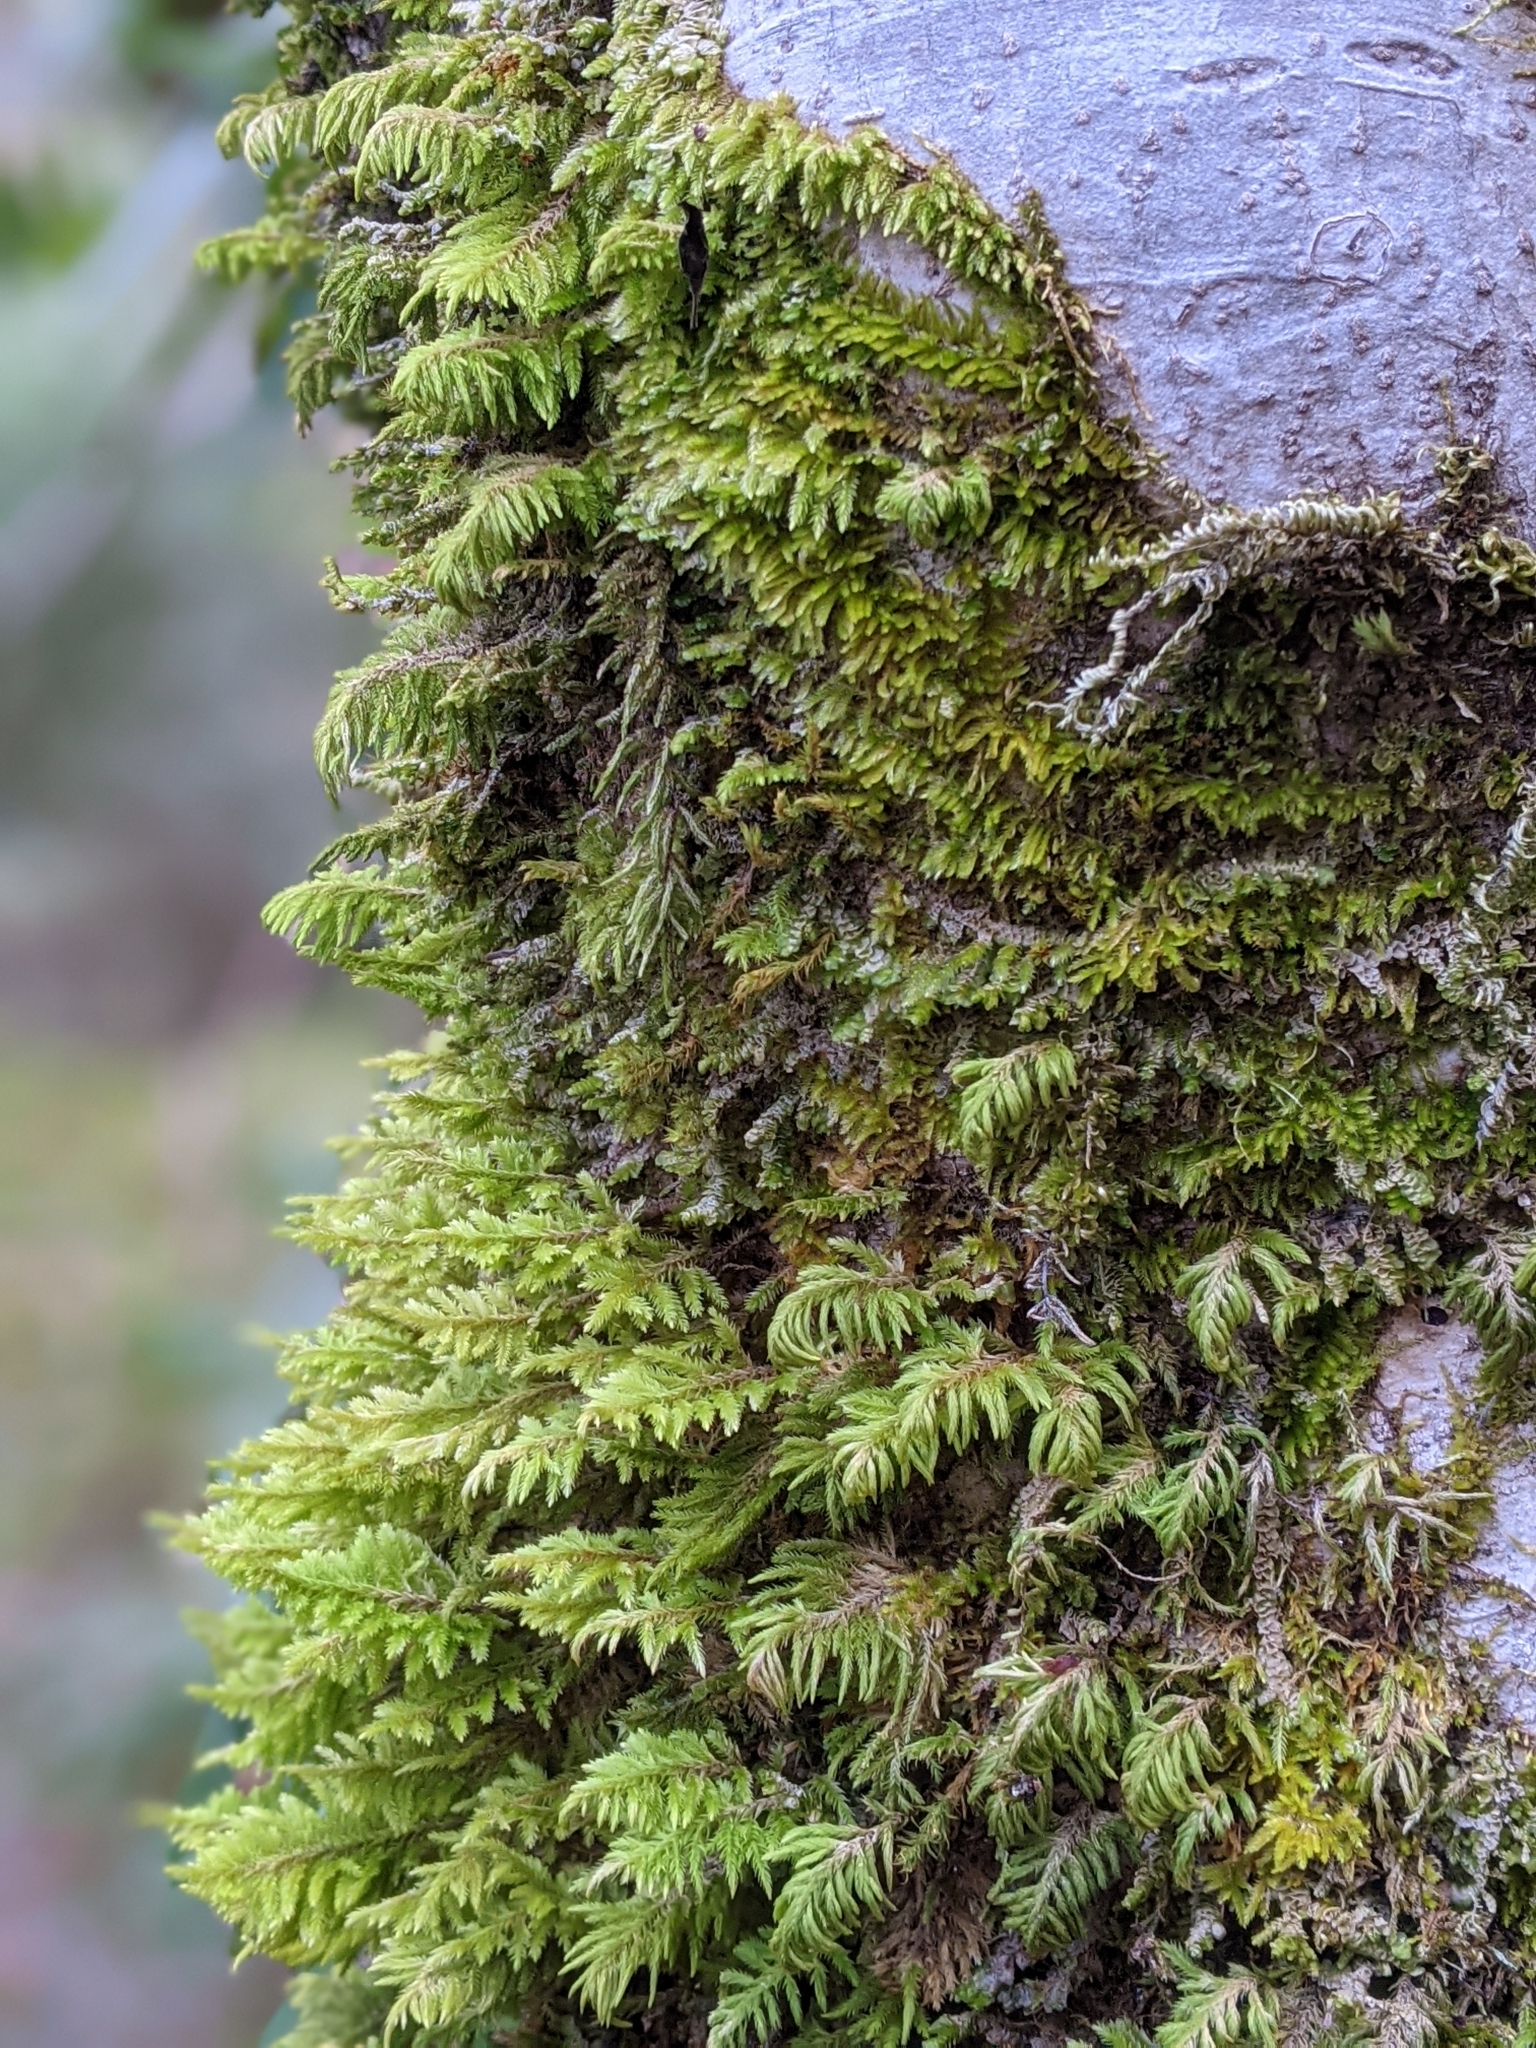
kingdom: Plantae
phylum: Bryophyta
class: Bryopsida
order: Hypnales
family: Cryphaeaceae
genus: Dendroalsia
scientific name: Dendroalsia abietina
